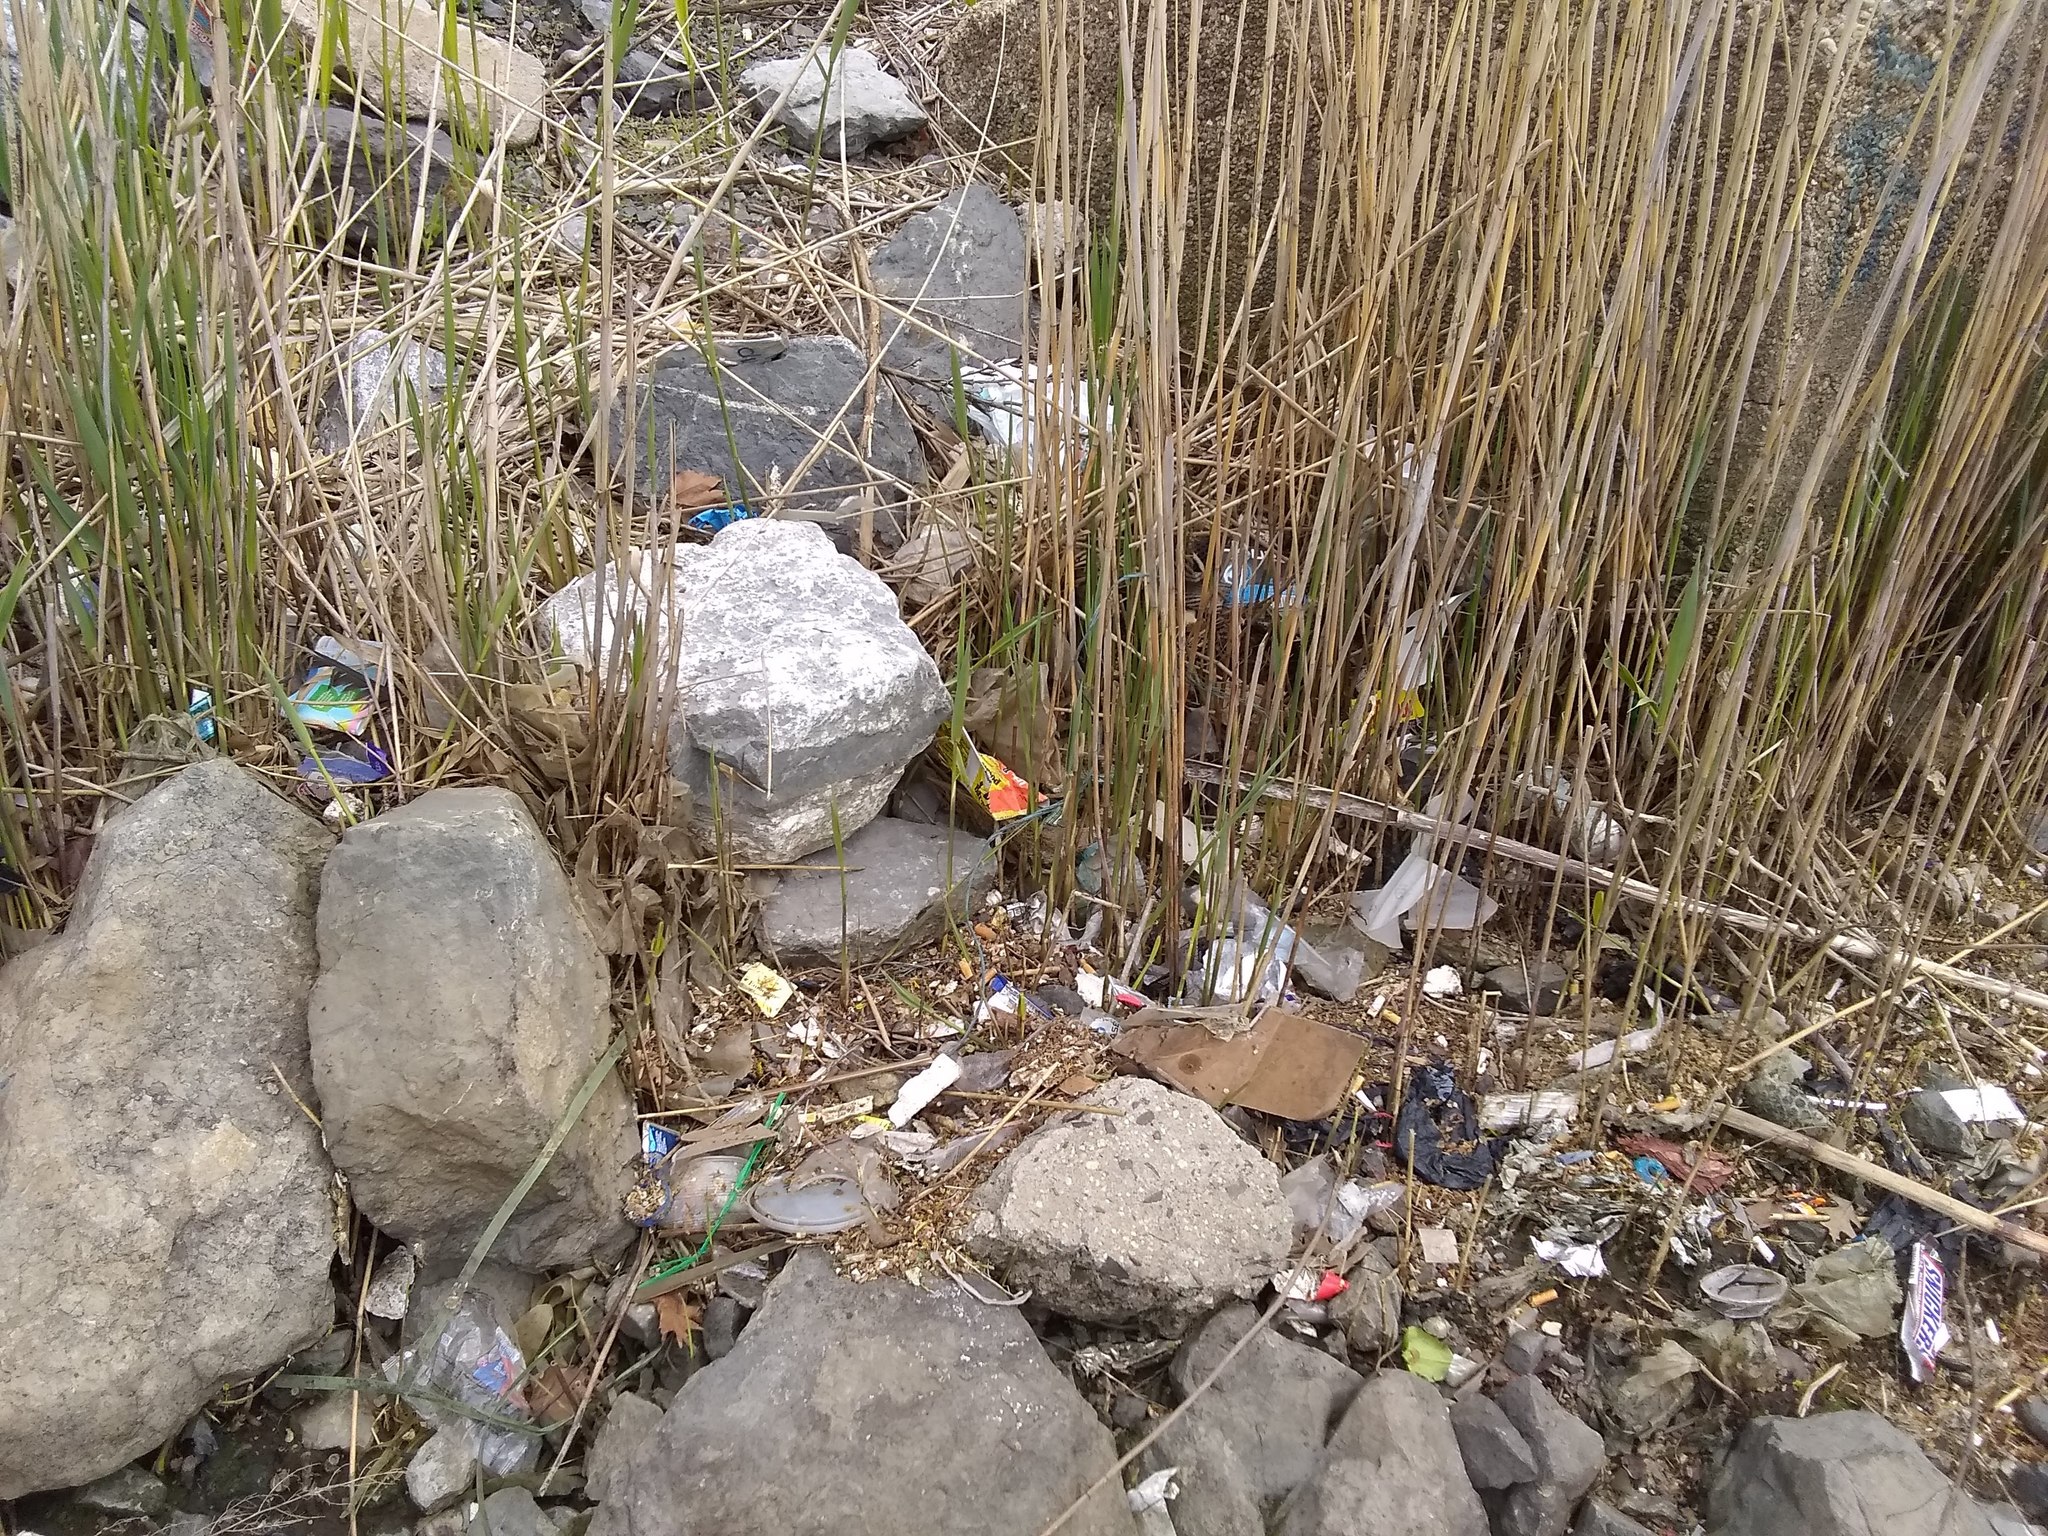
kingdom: Plantae
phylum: Tracheophyta
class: Liliopsida
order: Poales
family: Poaceae
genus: Phragmites
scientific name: Phragmites australis
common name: Common reed
